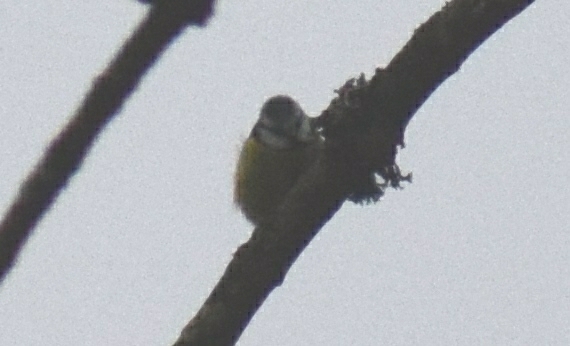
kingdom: Animalia
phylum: Chordata
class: Aves
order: Passeriformes
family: Paridae
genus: Cyanistes
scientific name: Cyanistes caeruleus
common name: Eurasian blue tit
